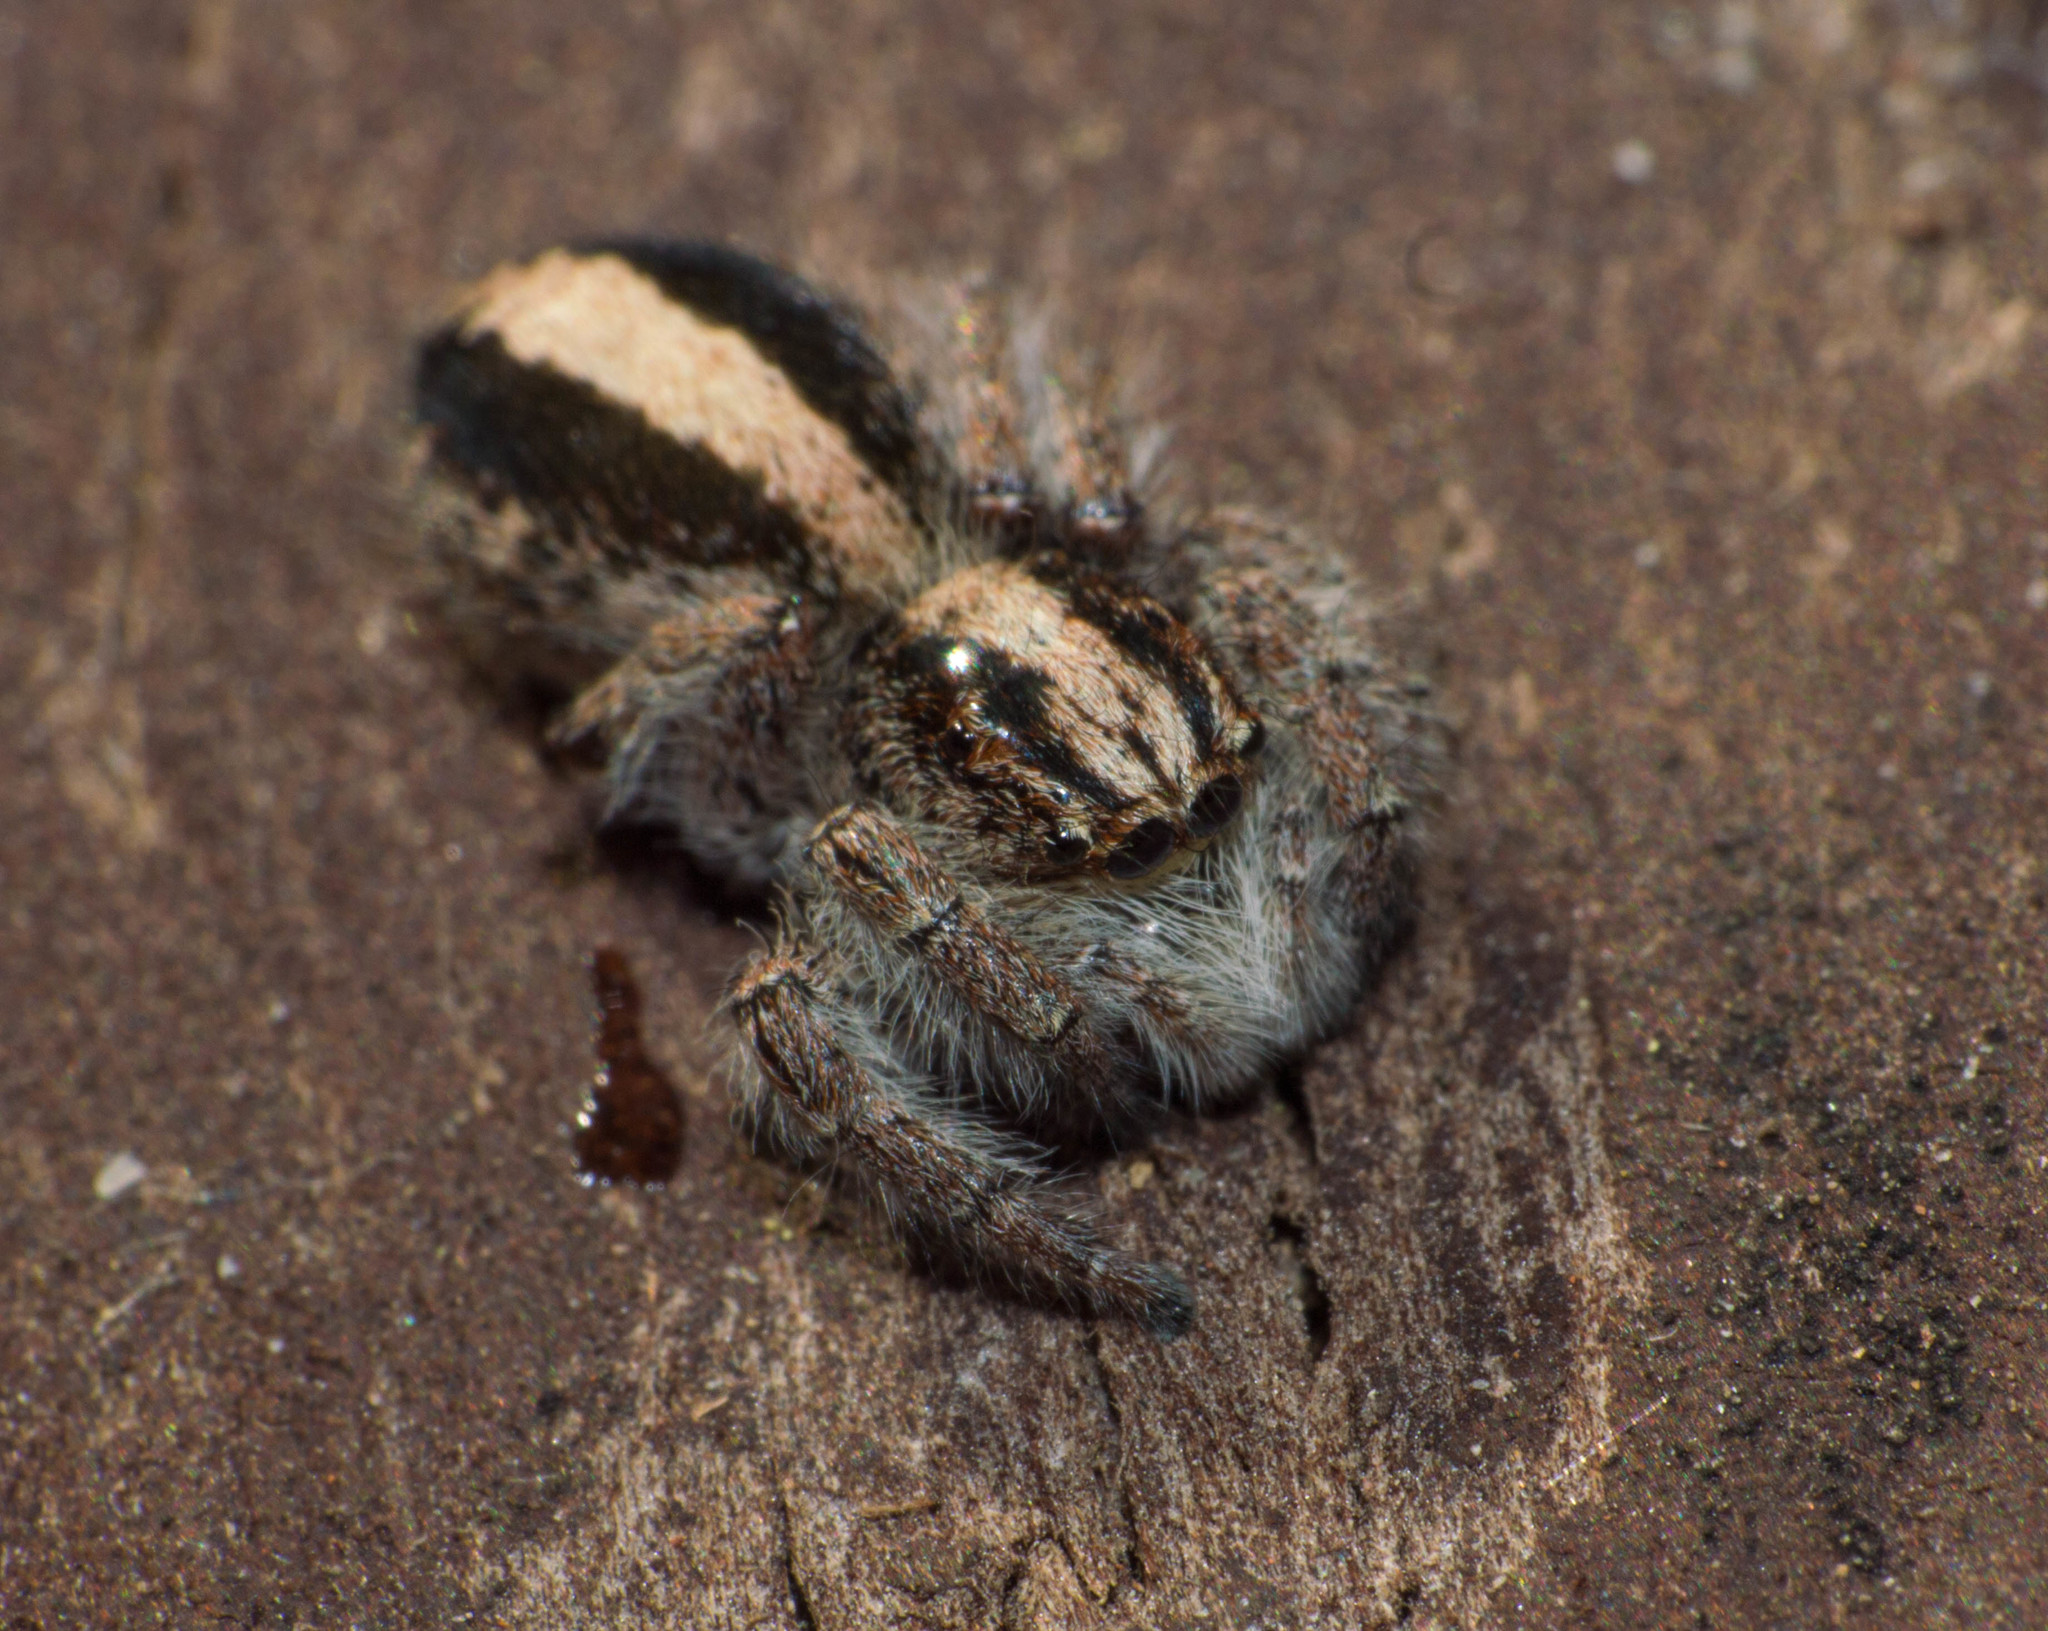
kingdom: Animalia
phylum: Arthropoda
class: Arachnida
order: Araneae
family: Salticidae
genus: Megafreya
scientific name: Megafreya sutrix
